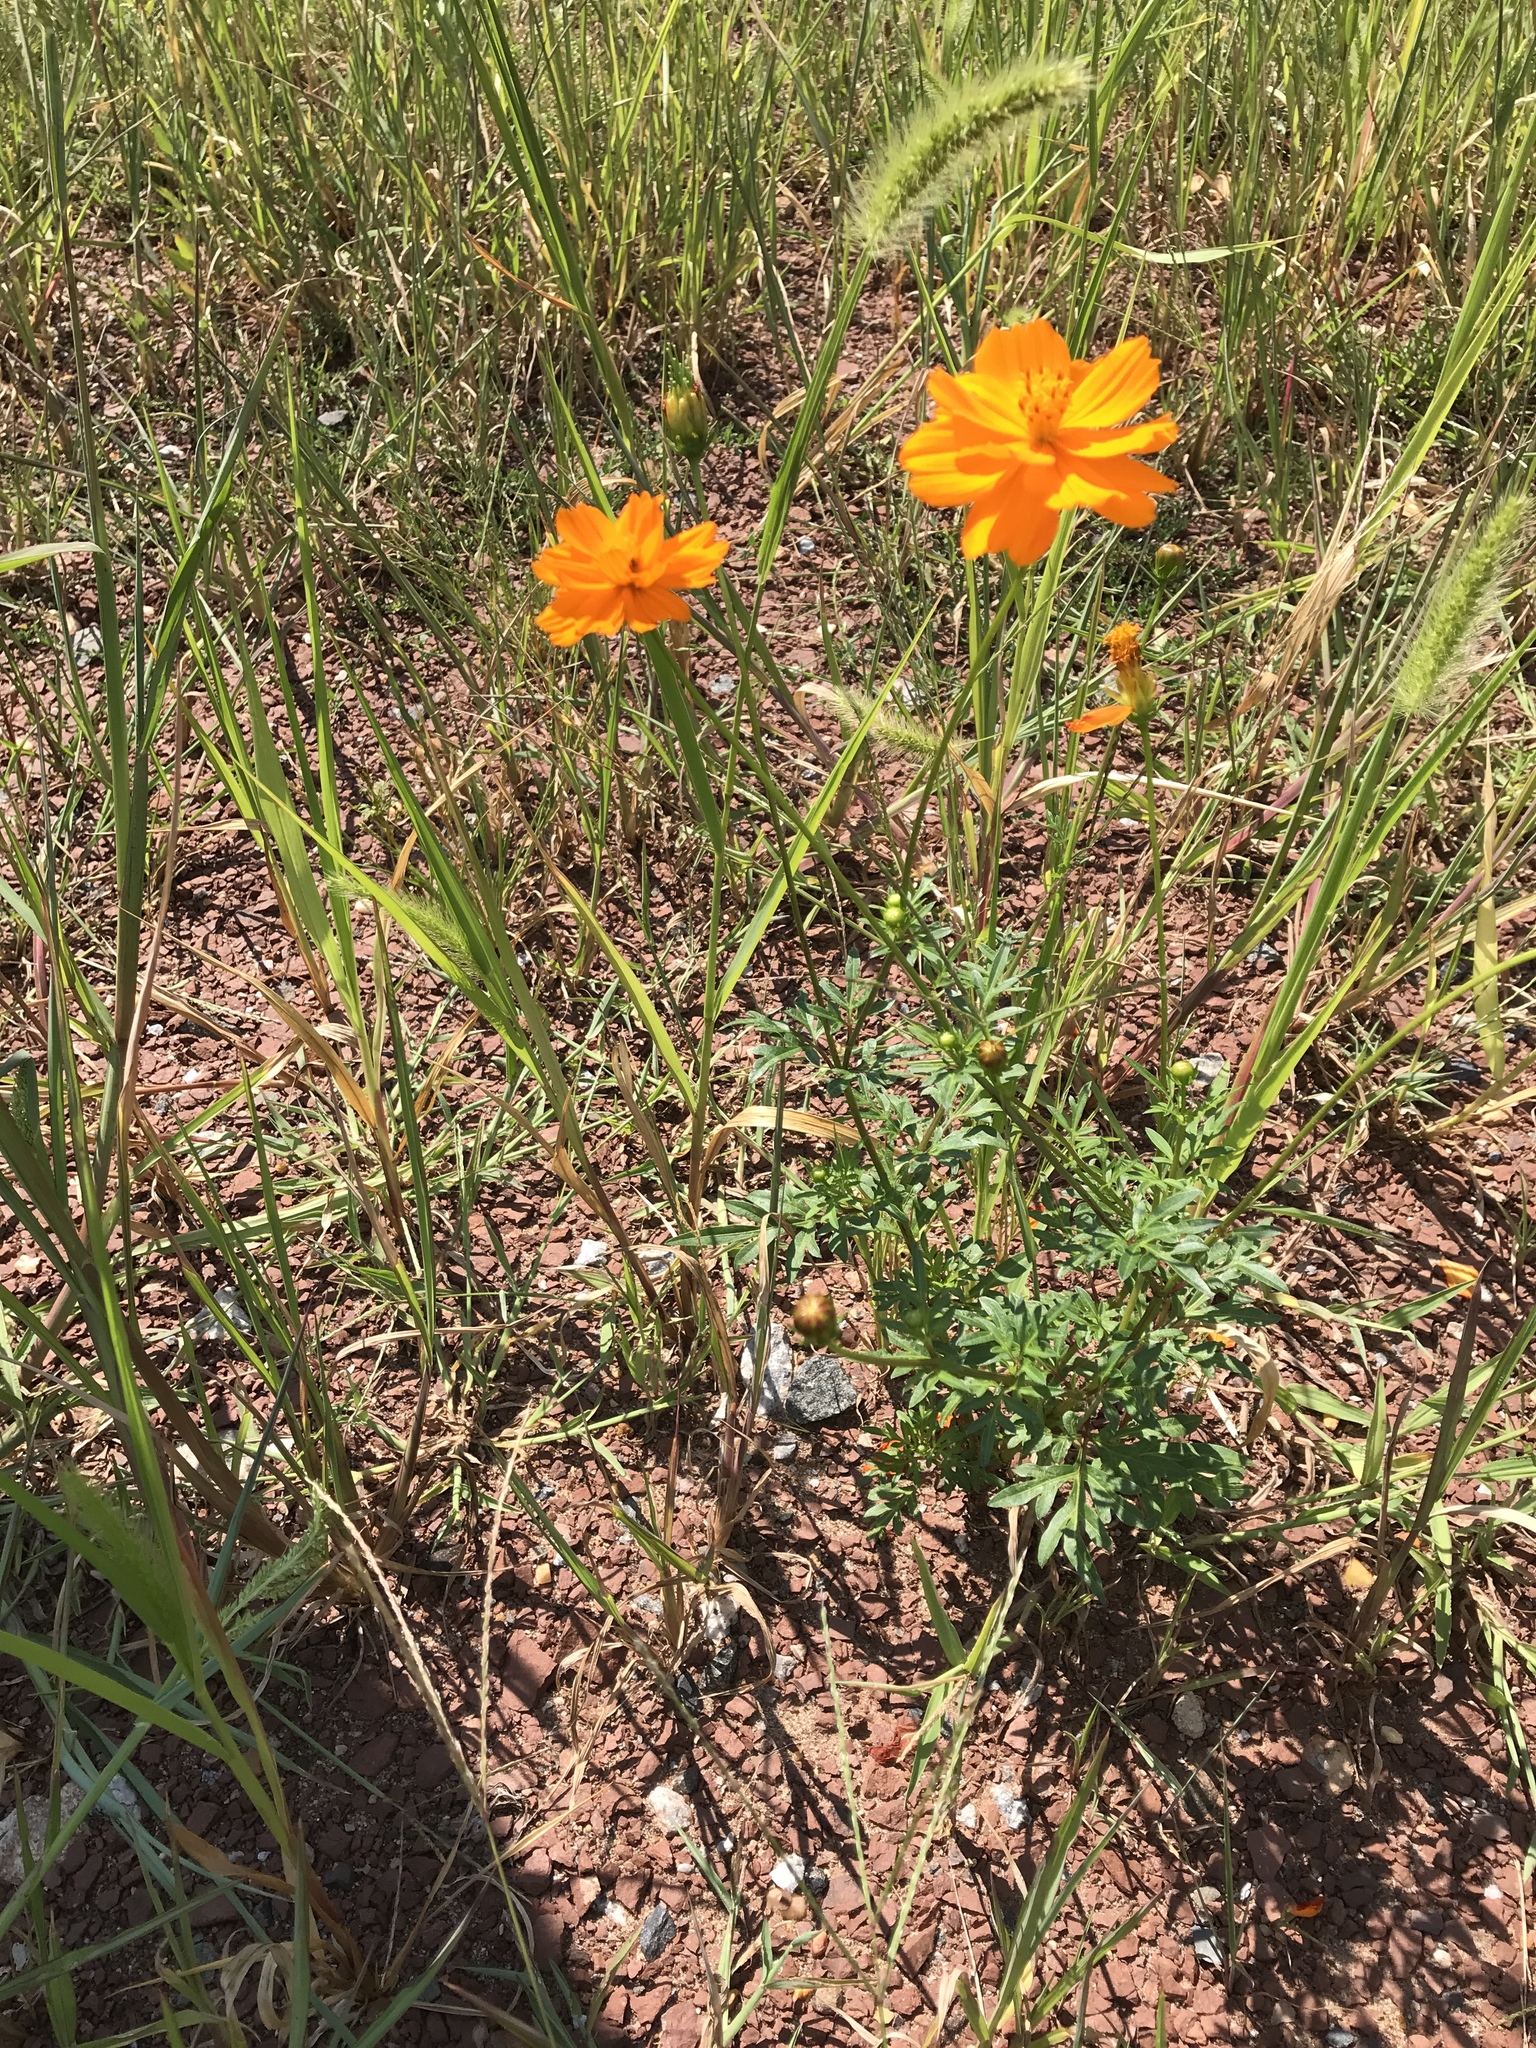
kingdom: Plantae
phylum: Tracheophyta
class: Magnoliopsida
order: Asterales
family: Asteraceae
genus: Cosmos
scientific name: Cosmos sulphureus
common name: Sulphur cosmos
